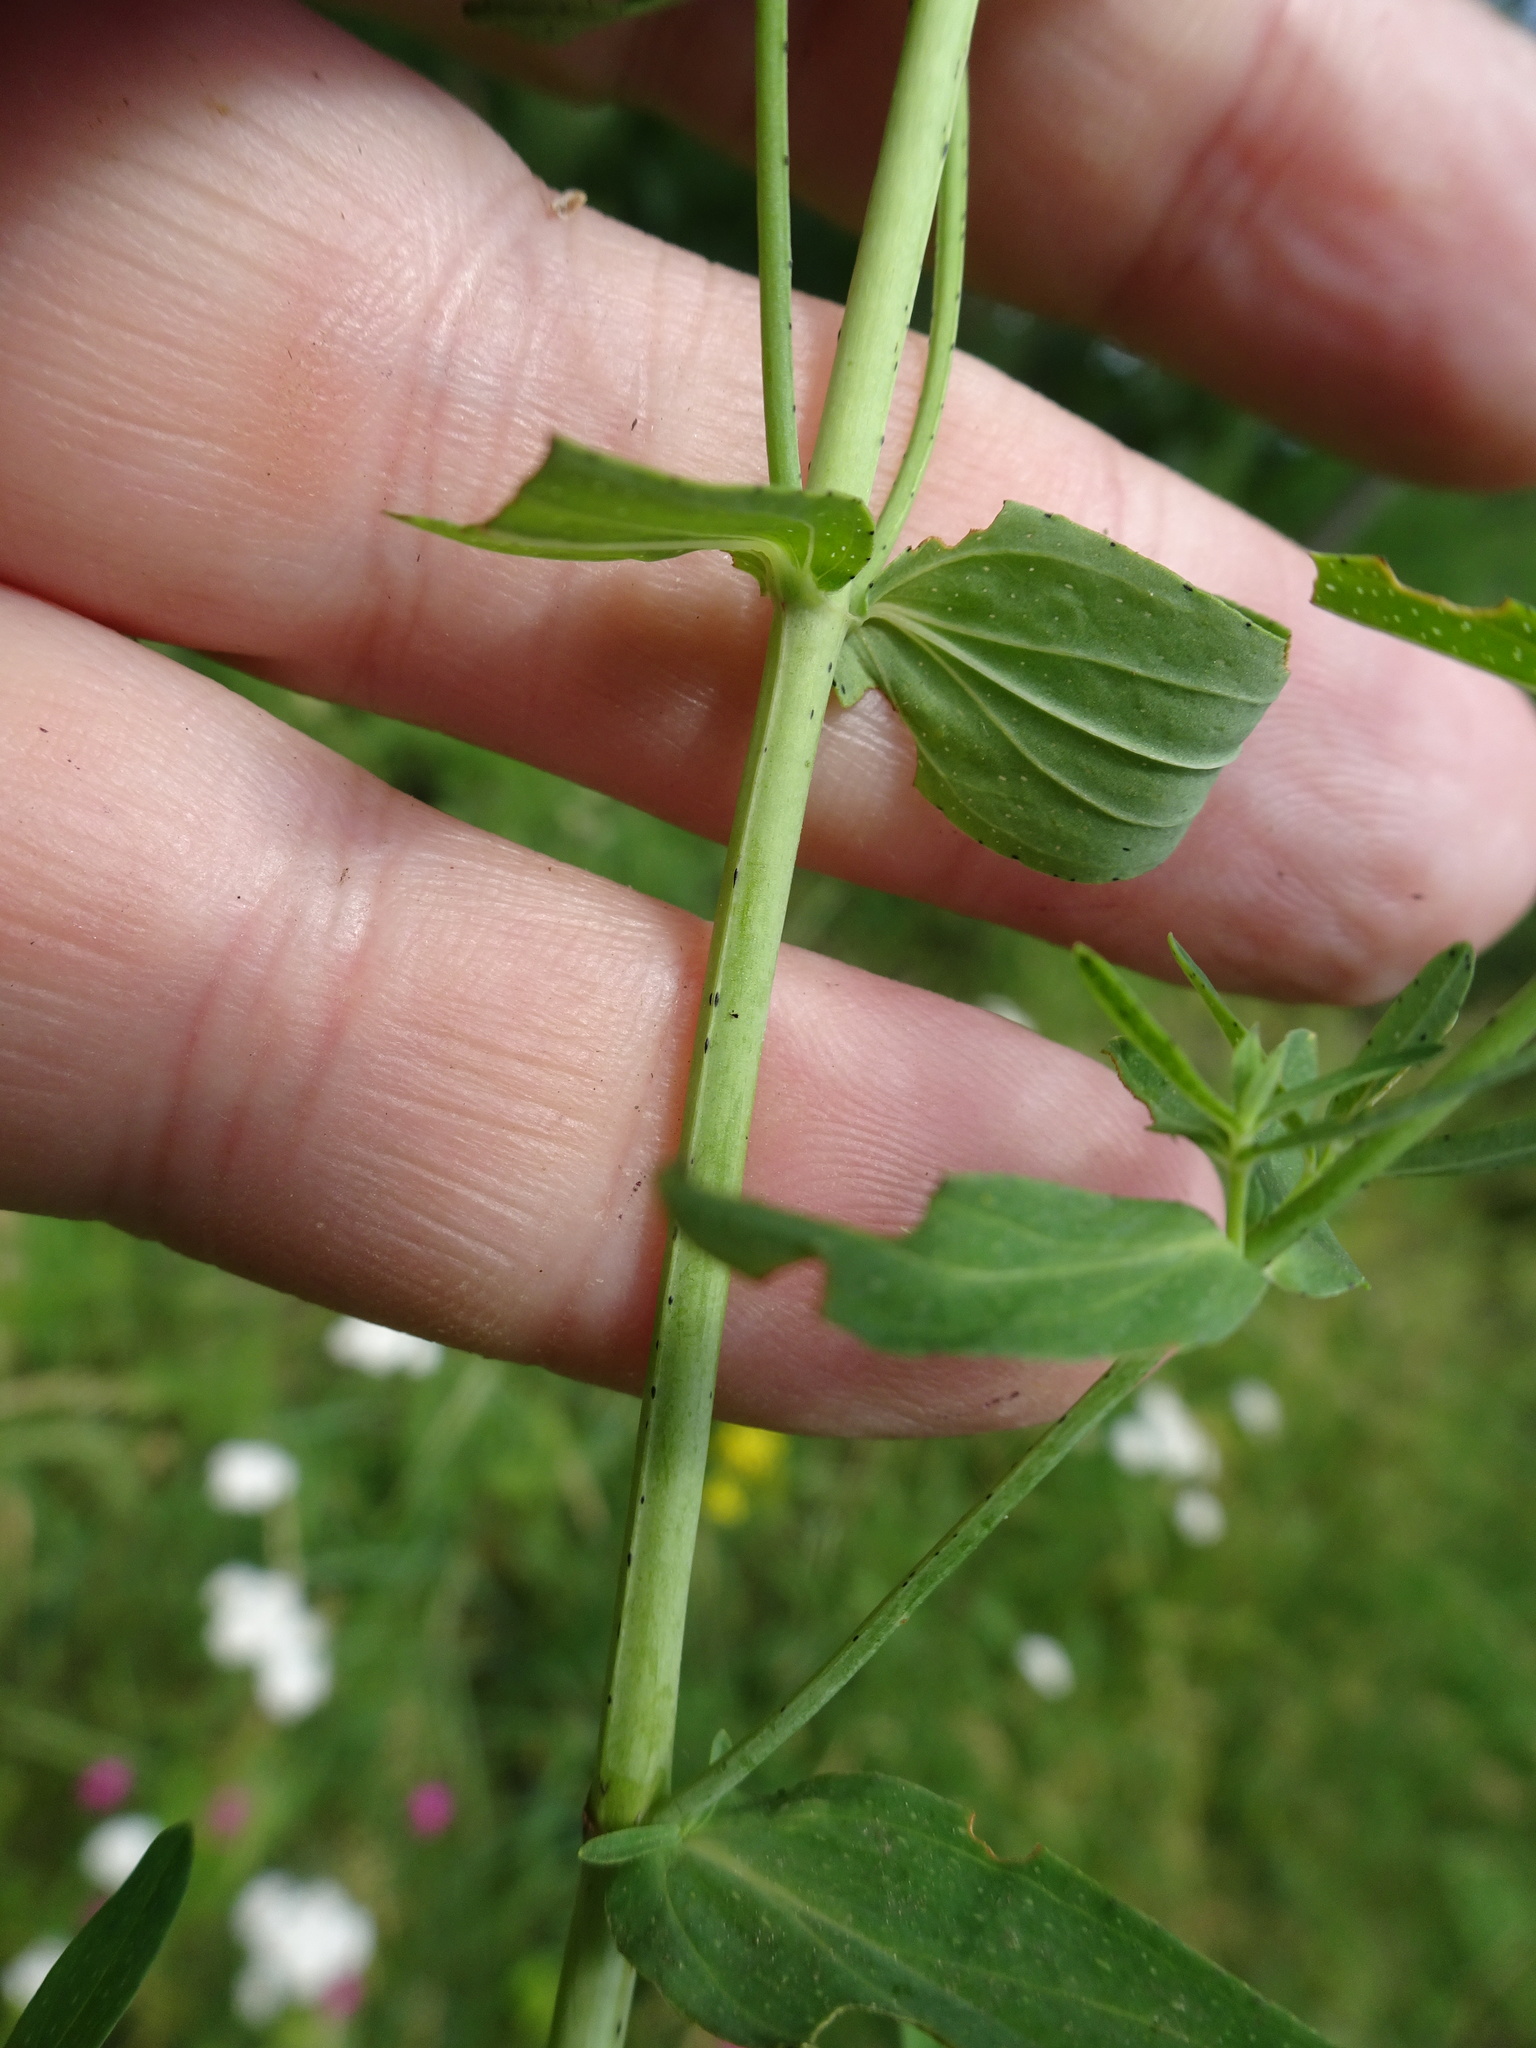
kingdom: Plantae
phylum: Tracheophyta
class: Magnoliopsida
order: Malpighiales
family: Hypericaceae
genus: Hypericum
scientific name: Hypericum perforatum
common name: Common st. johnswort
